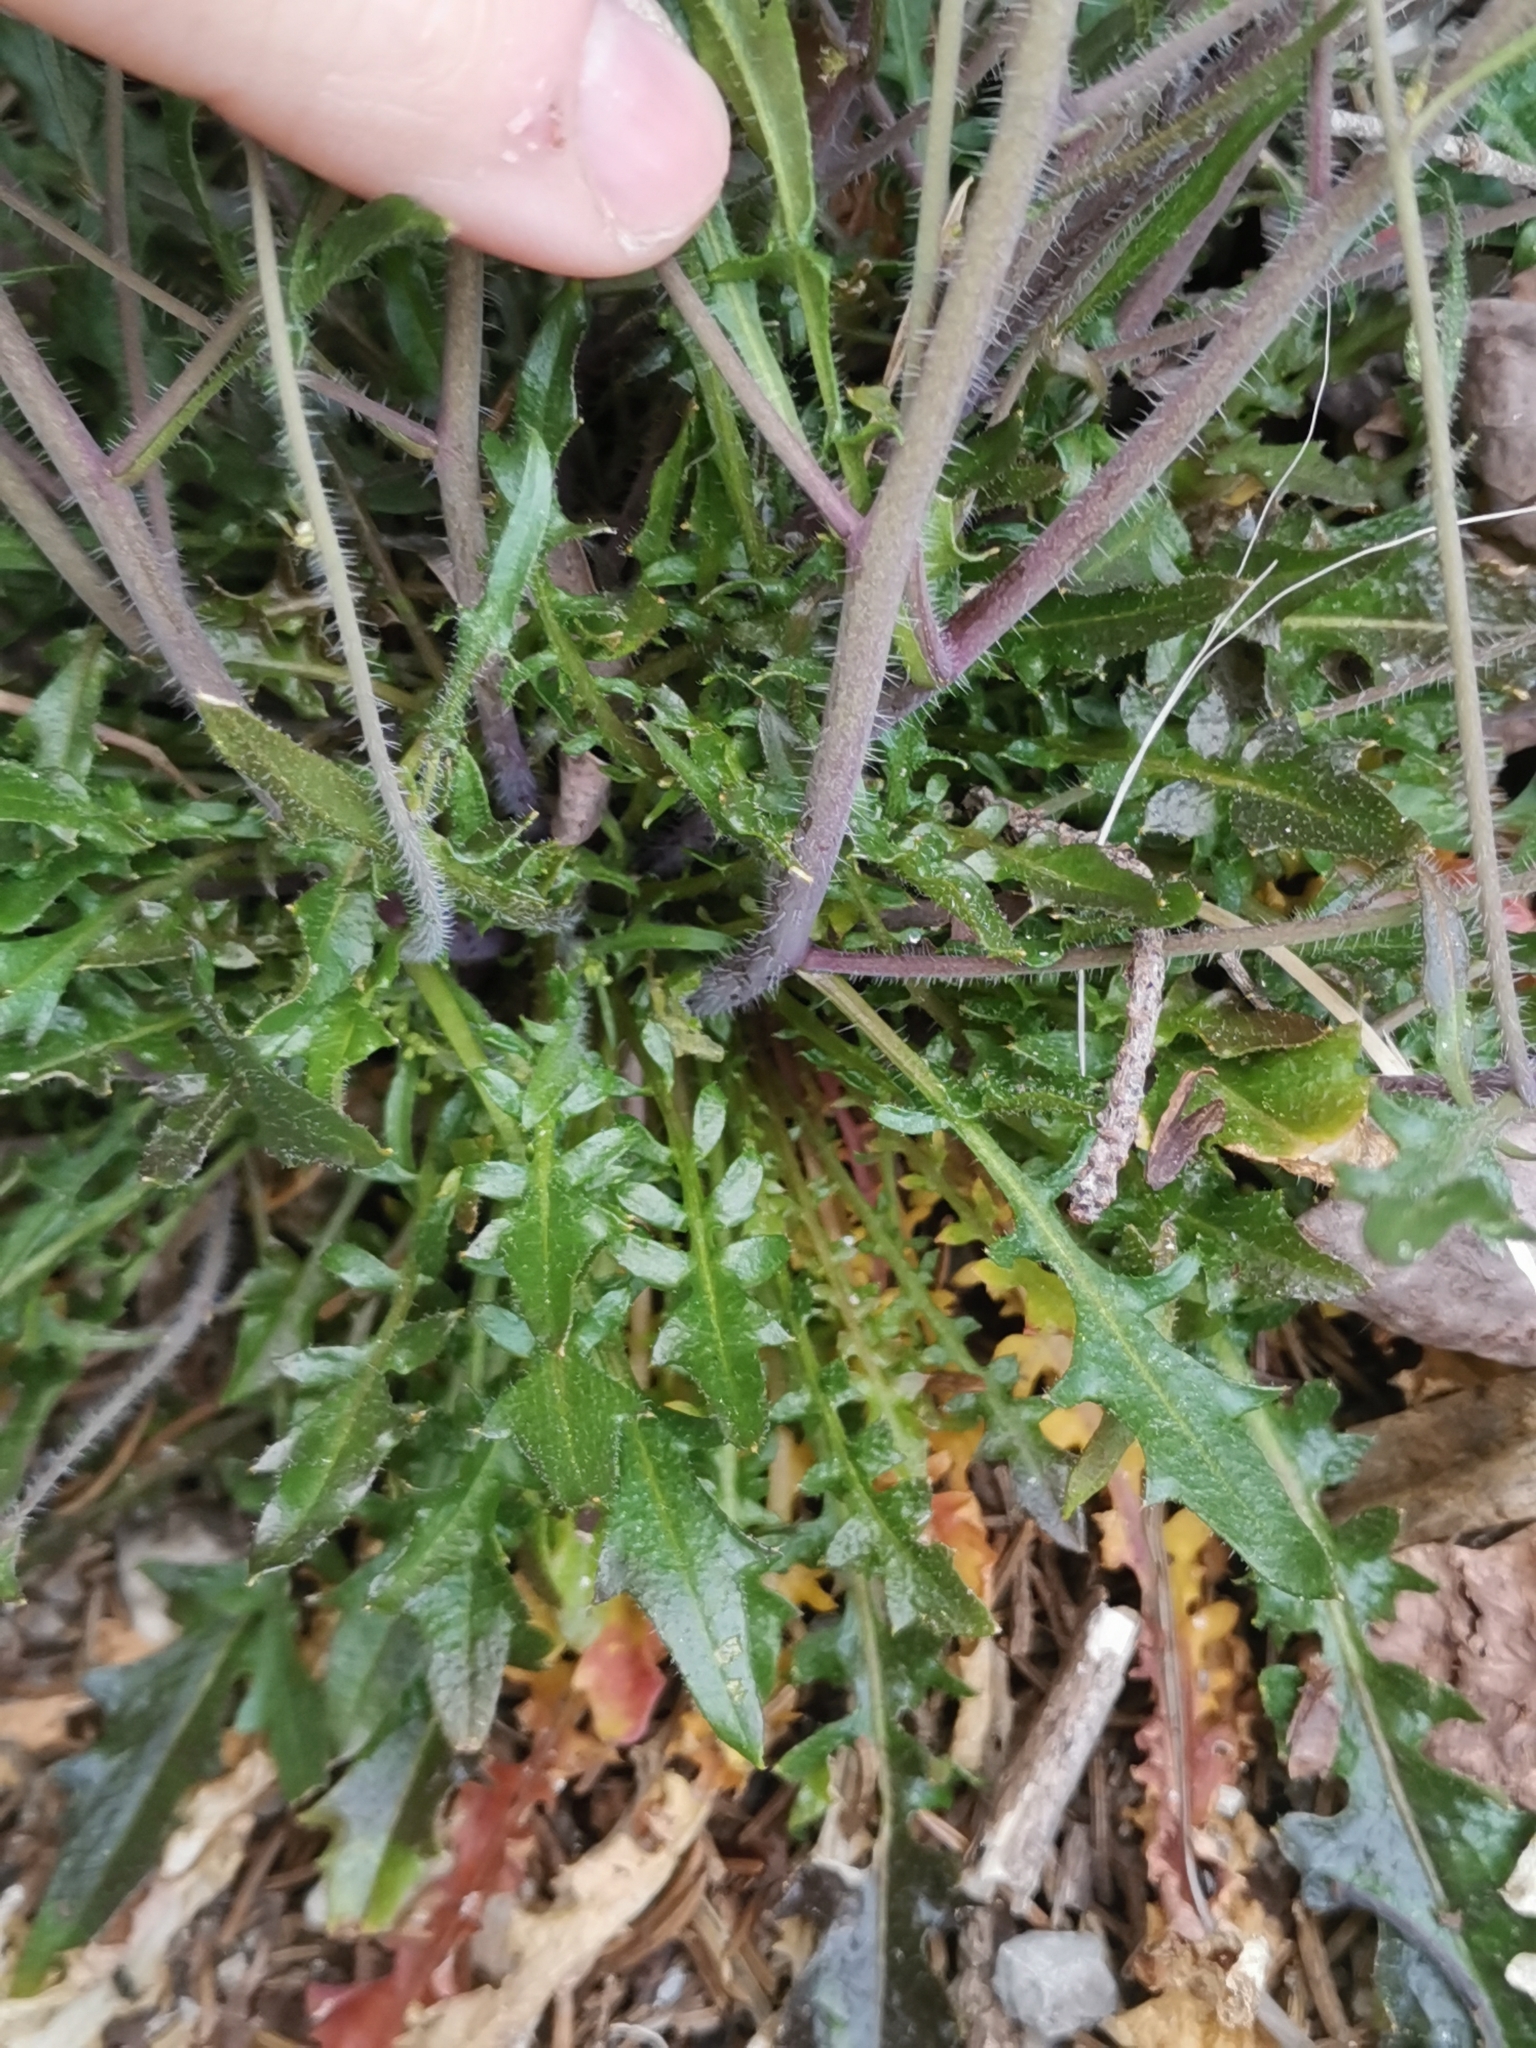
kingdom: Plantae
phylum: Tracheophyta
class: Magnoliopsida
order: Brassicales
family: Brassicaceae
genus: Arabidopsis
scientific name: Arabidopsis arenosa
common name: Sand rock-cress
